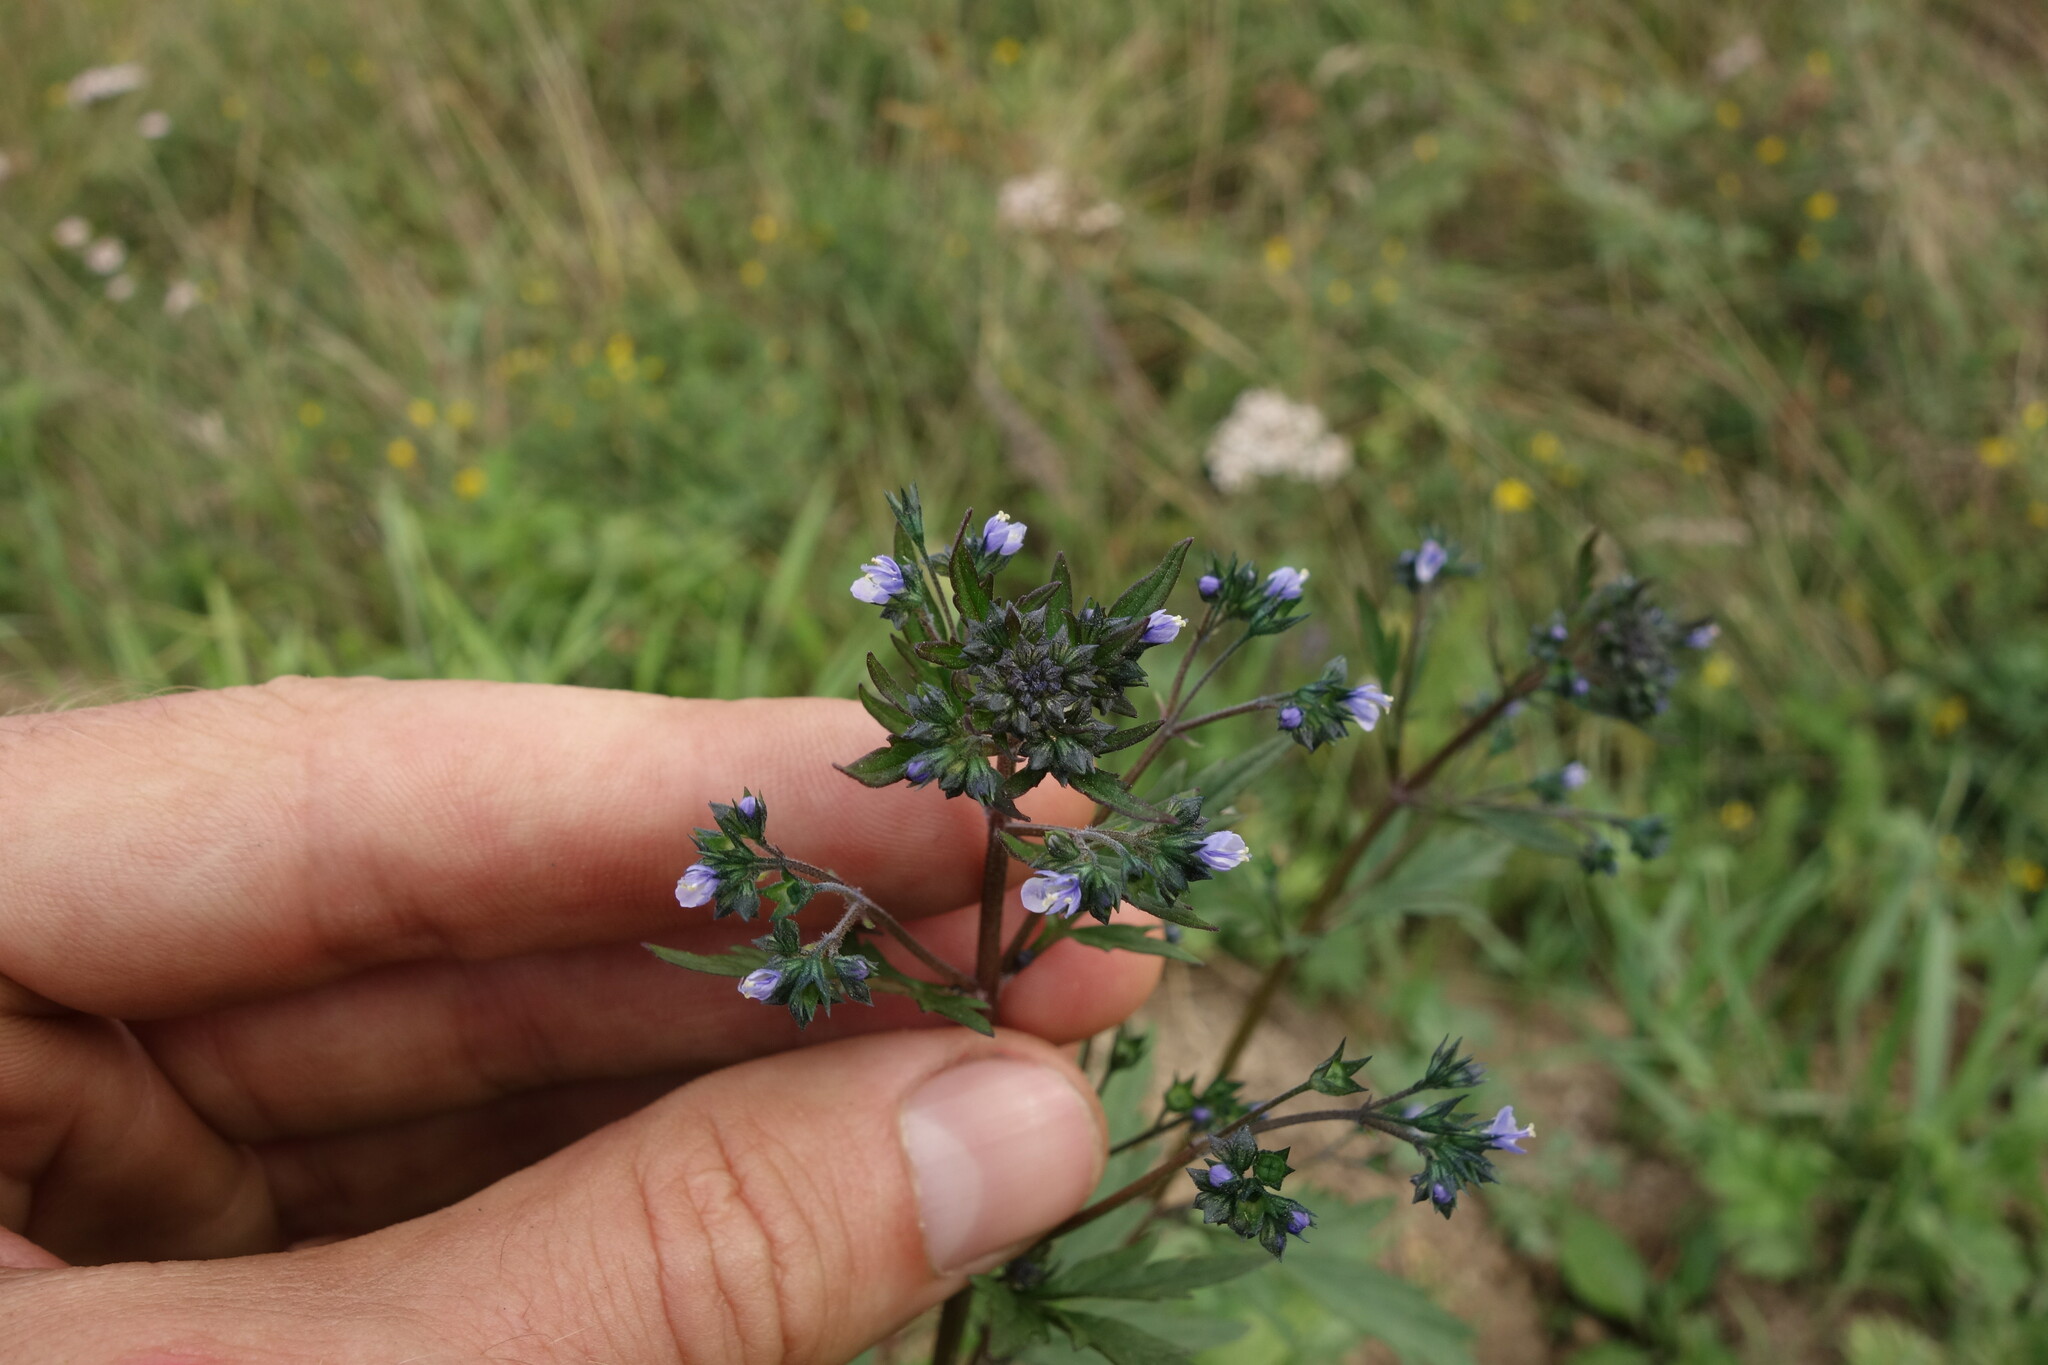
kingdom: Plantae
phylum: Tracheophyta
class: Magnoliopsida
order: Lamiales
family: Lamiaceae
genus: Amethystea
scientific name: Amethystea caerulea
